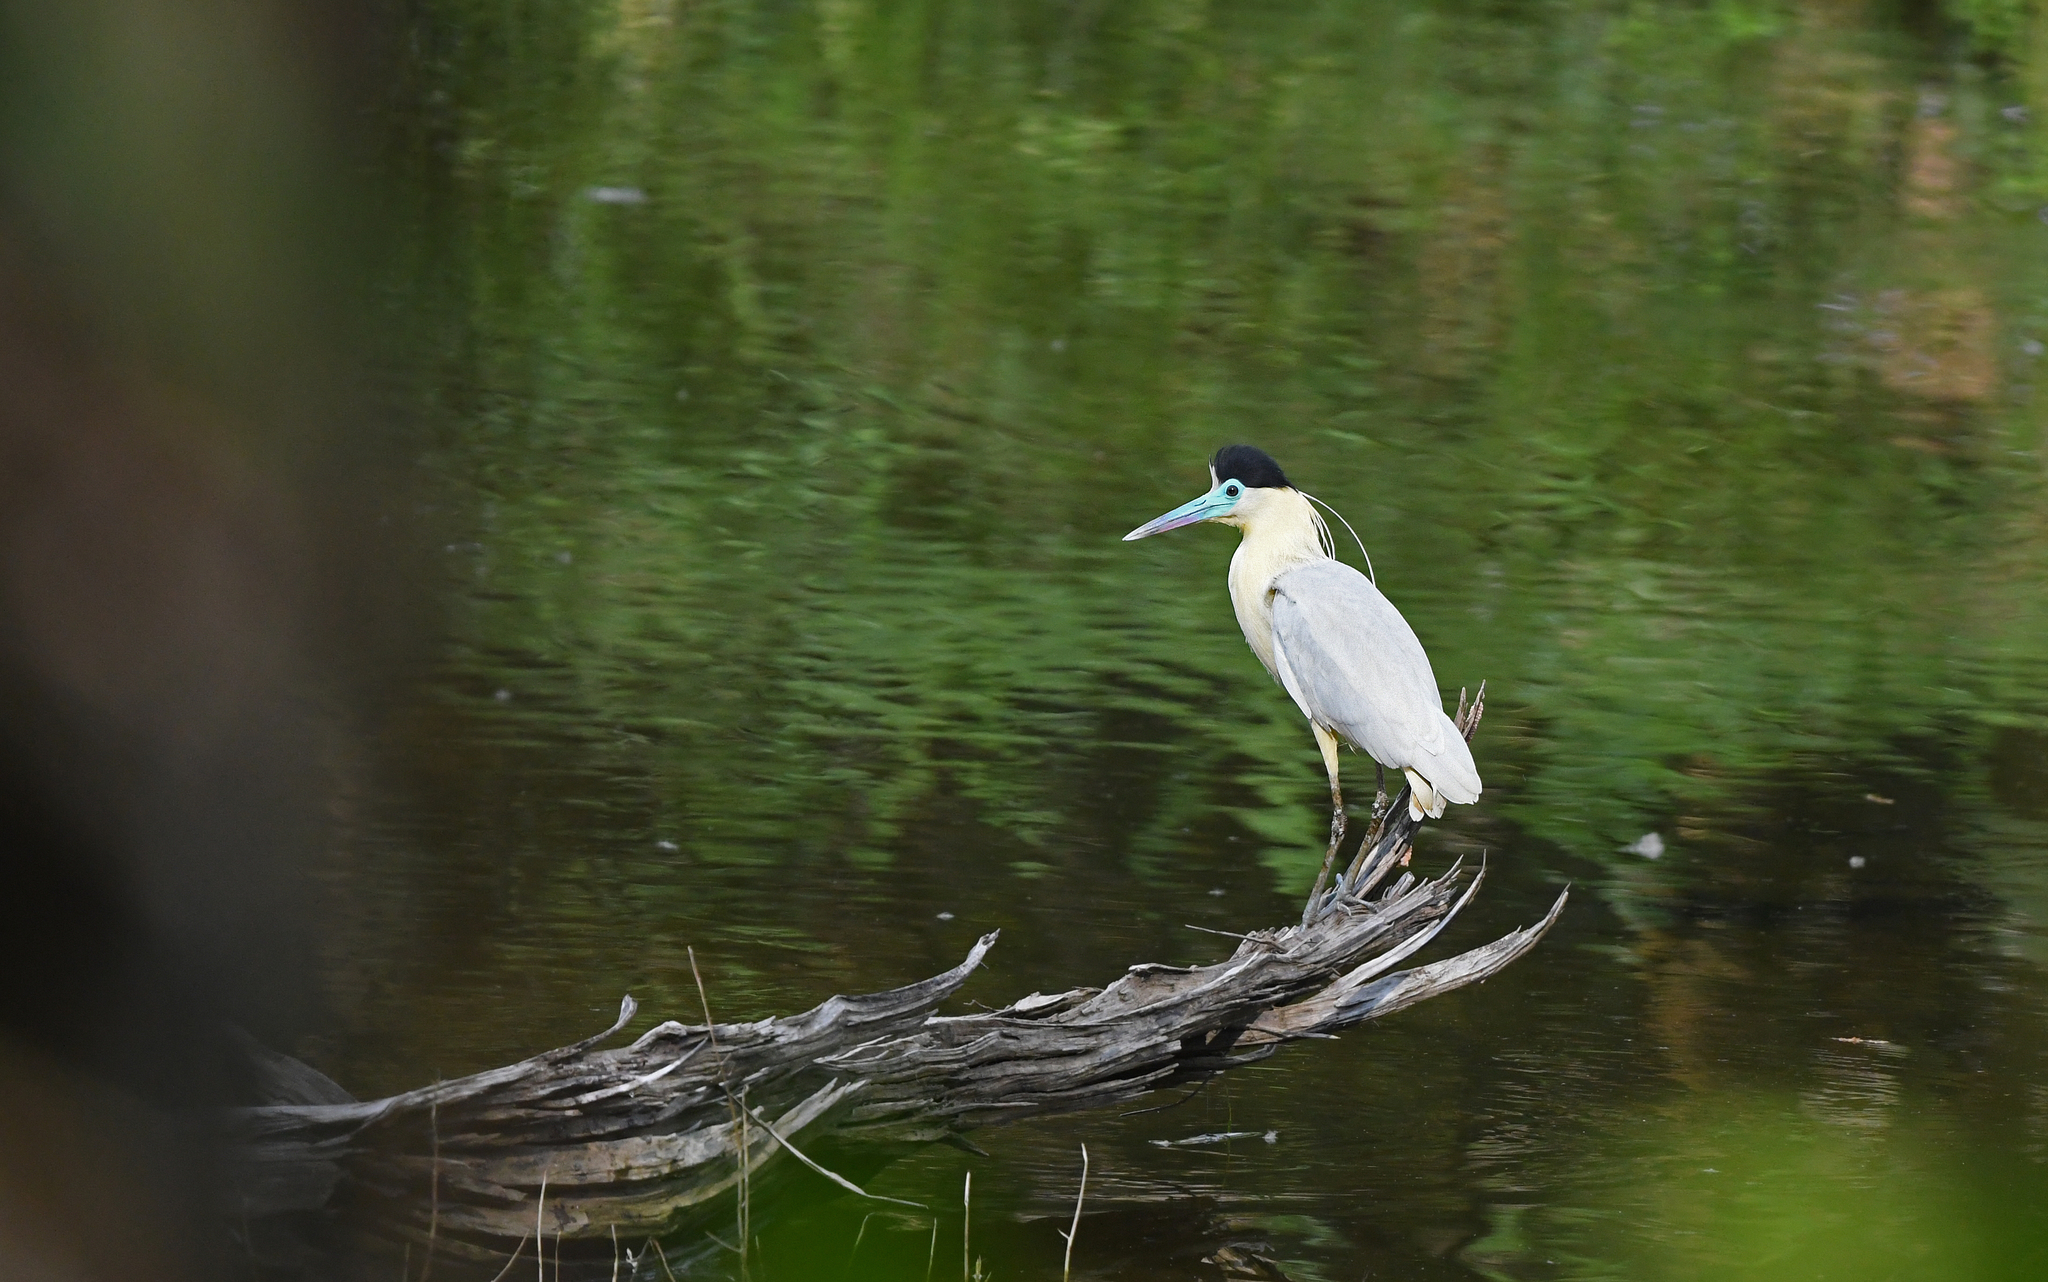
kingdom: Animalia
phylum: Chordata
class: Aves
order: Pelecaniformes
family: Ardeidae
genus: Pilherodius
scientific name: Pilherodius pileatus
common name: Capped heron
